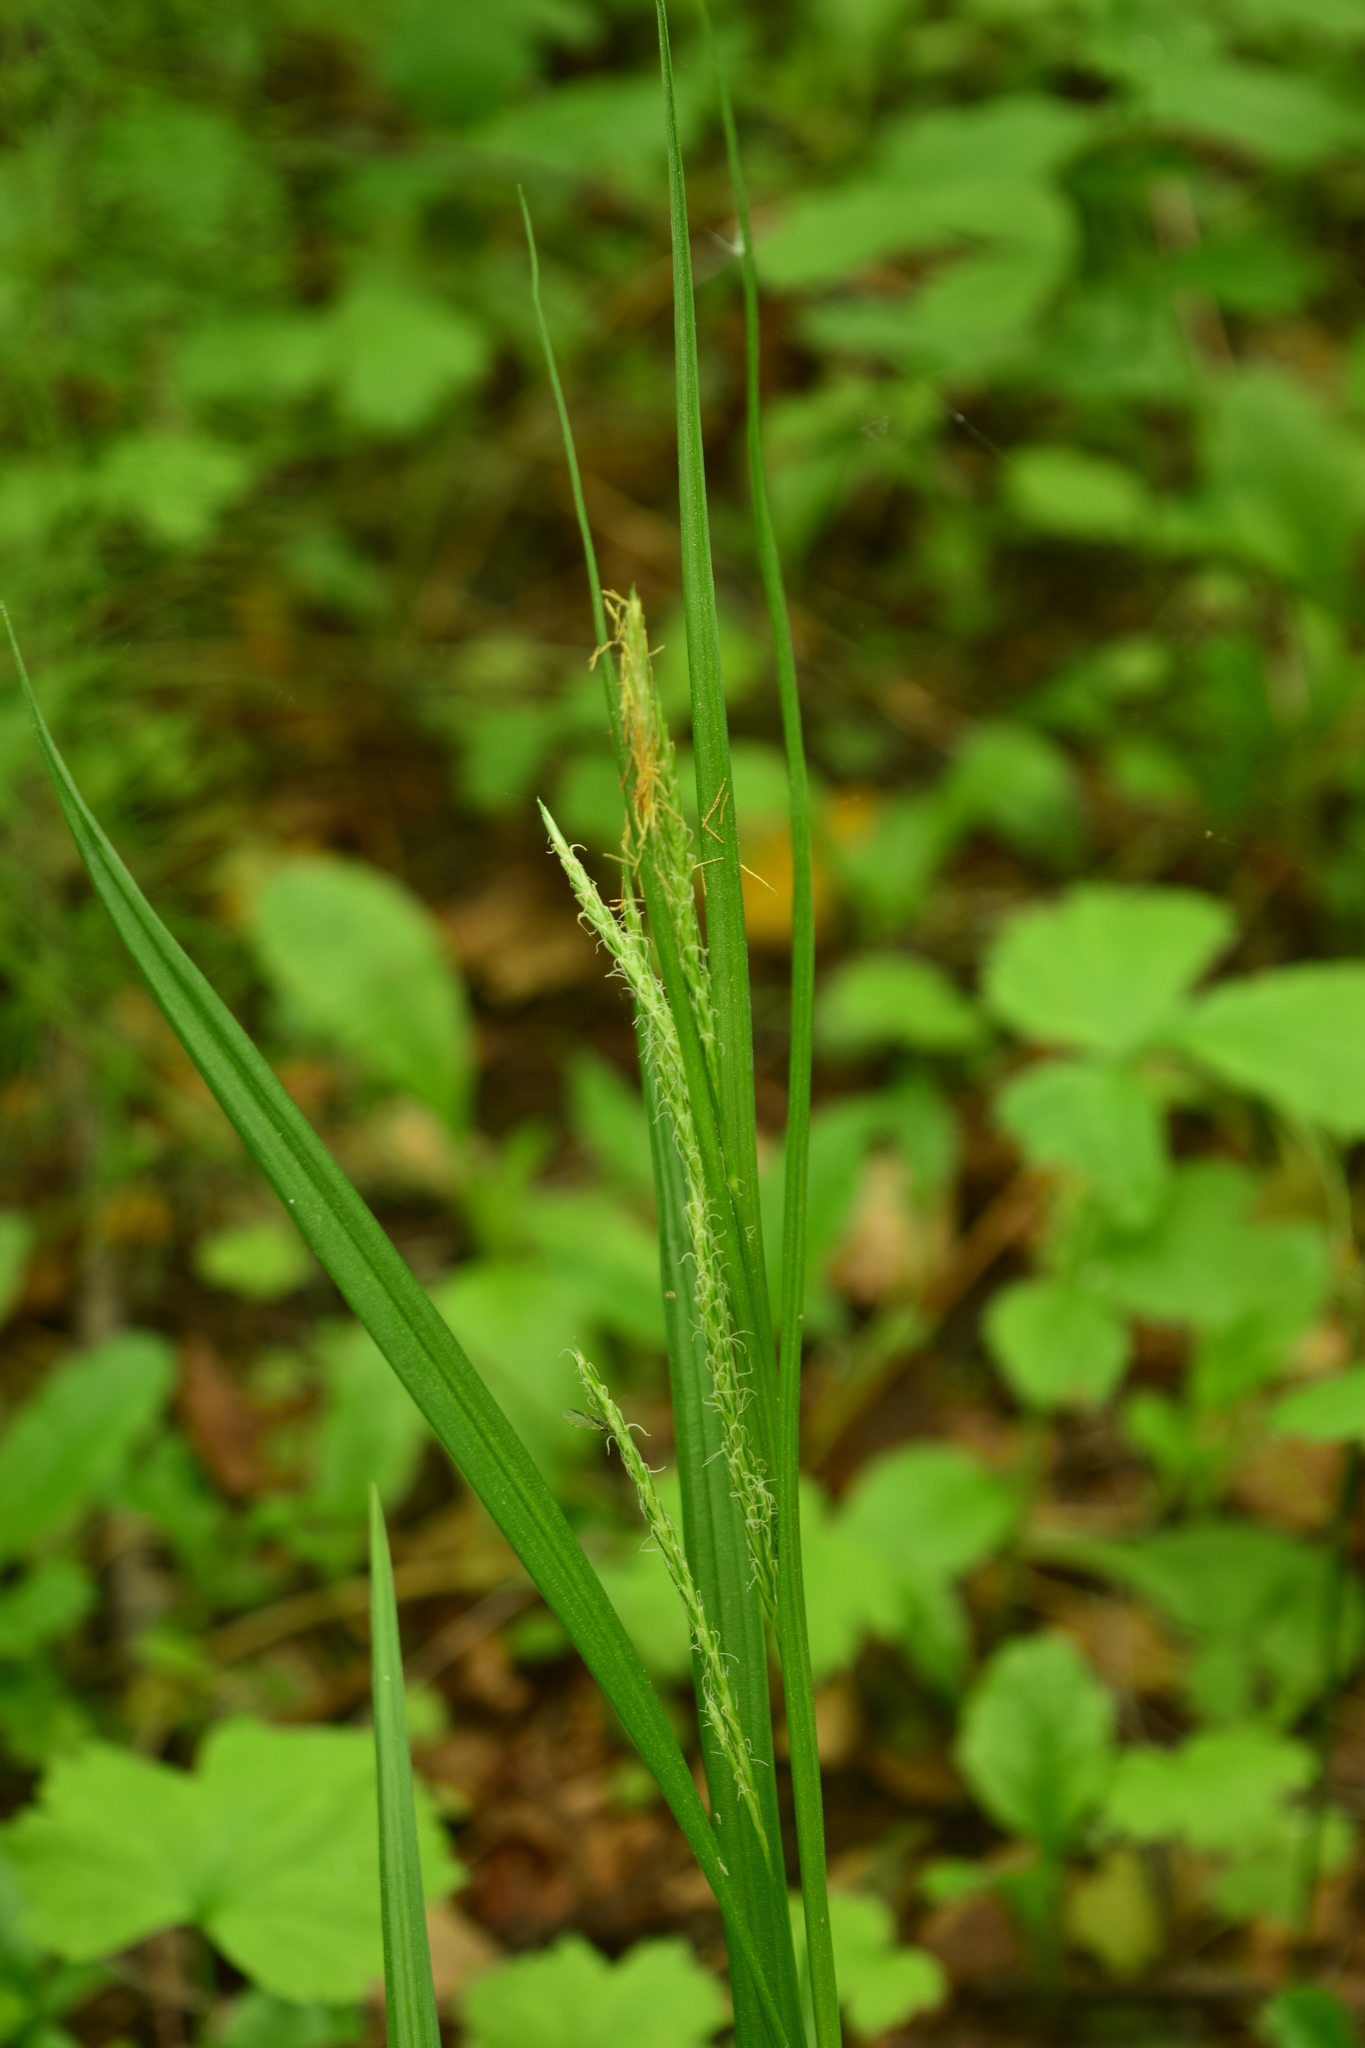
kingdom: Plantae
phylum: Tracheophyta
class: Liliopsida
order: Poales
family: Cyperaceae
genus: Carex
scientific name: Carex sylvatica
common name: Wood-sedge
